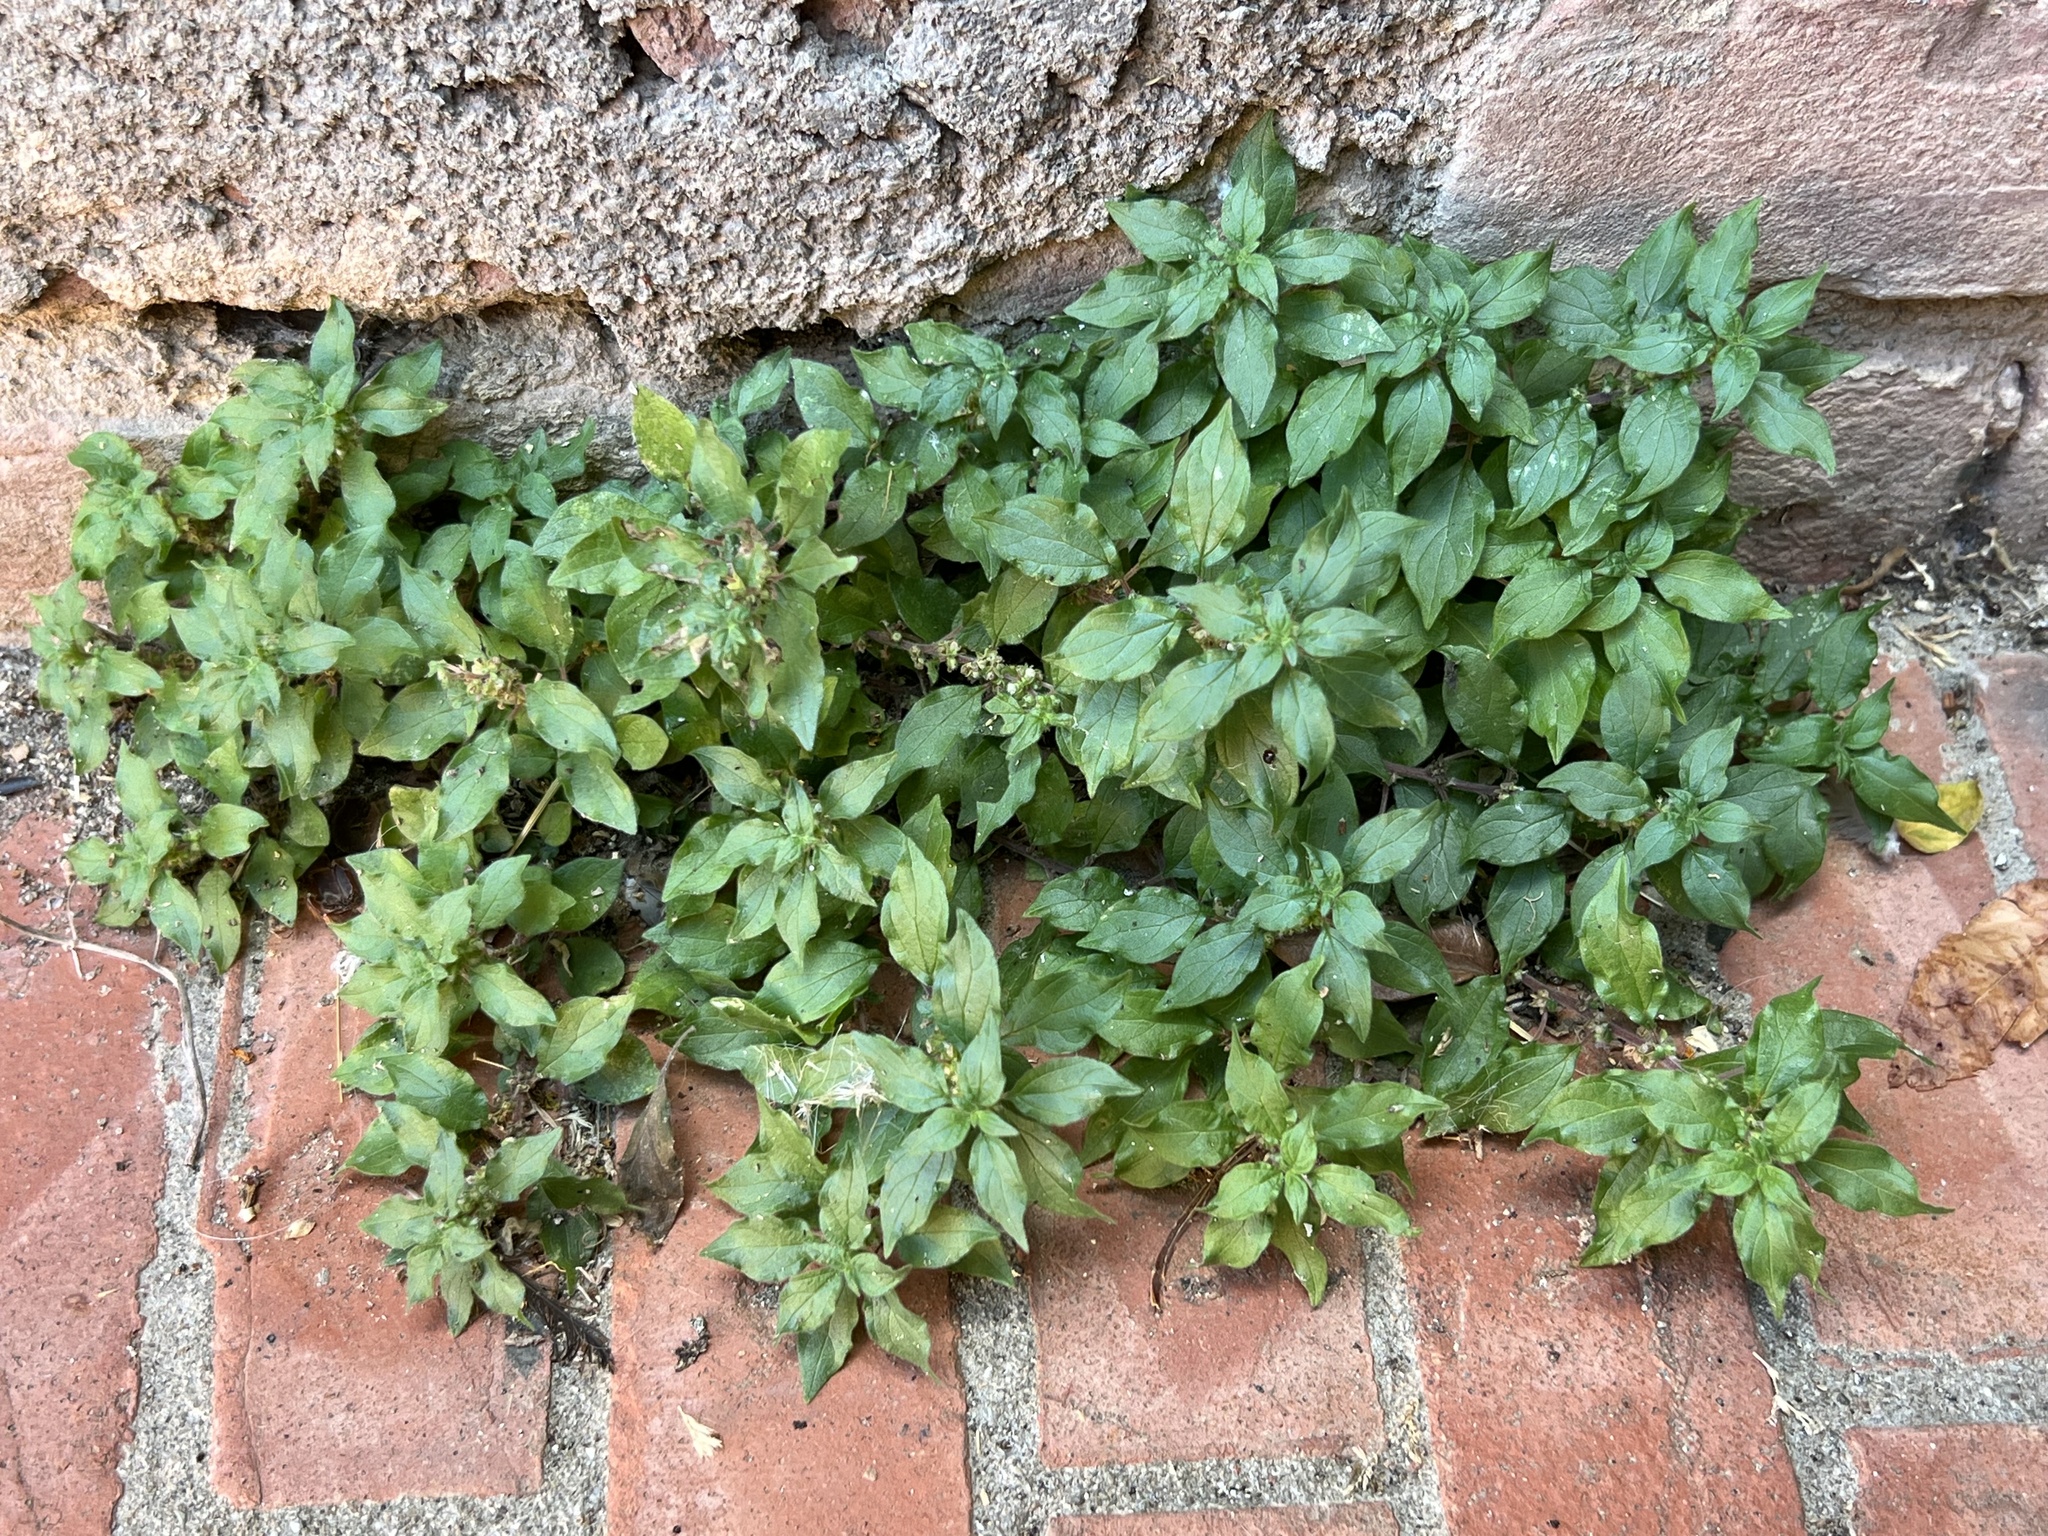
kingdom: Plantae
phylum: Tracheophyta
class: Magnoliopsida
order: Rosales
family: Urticaceae
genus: Parietaria
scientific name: Parietaria judaica
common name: Pellitory-of-the-wall
